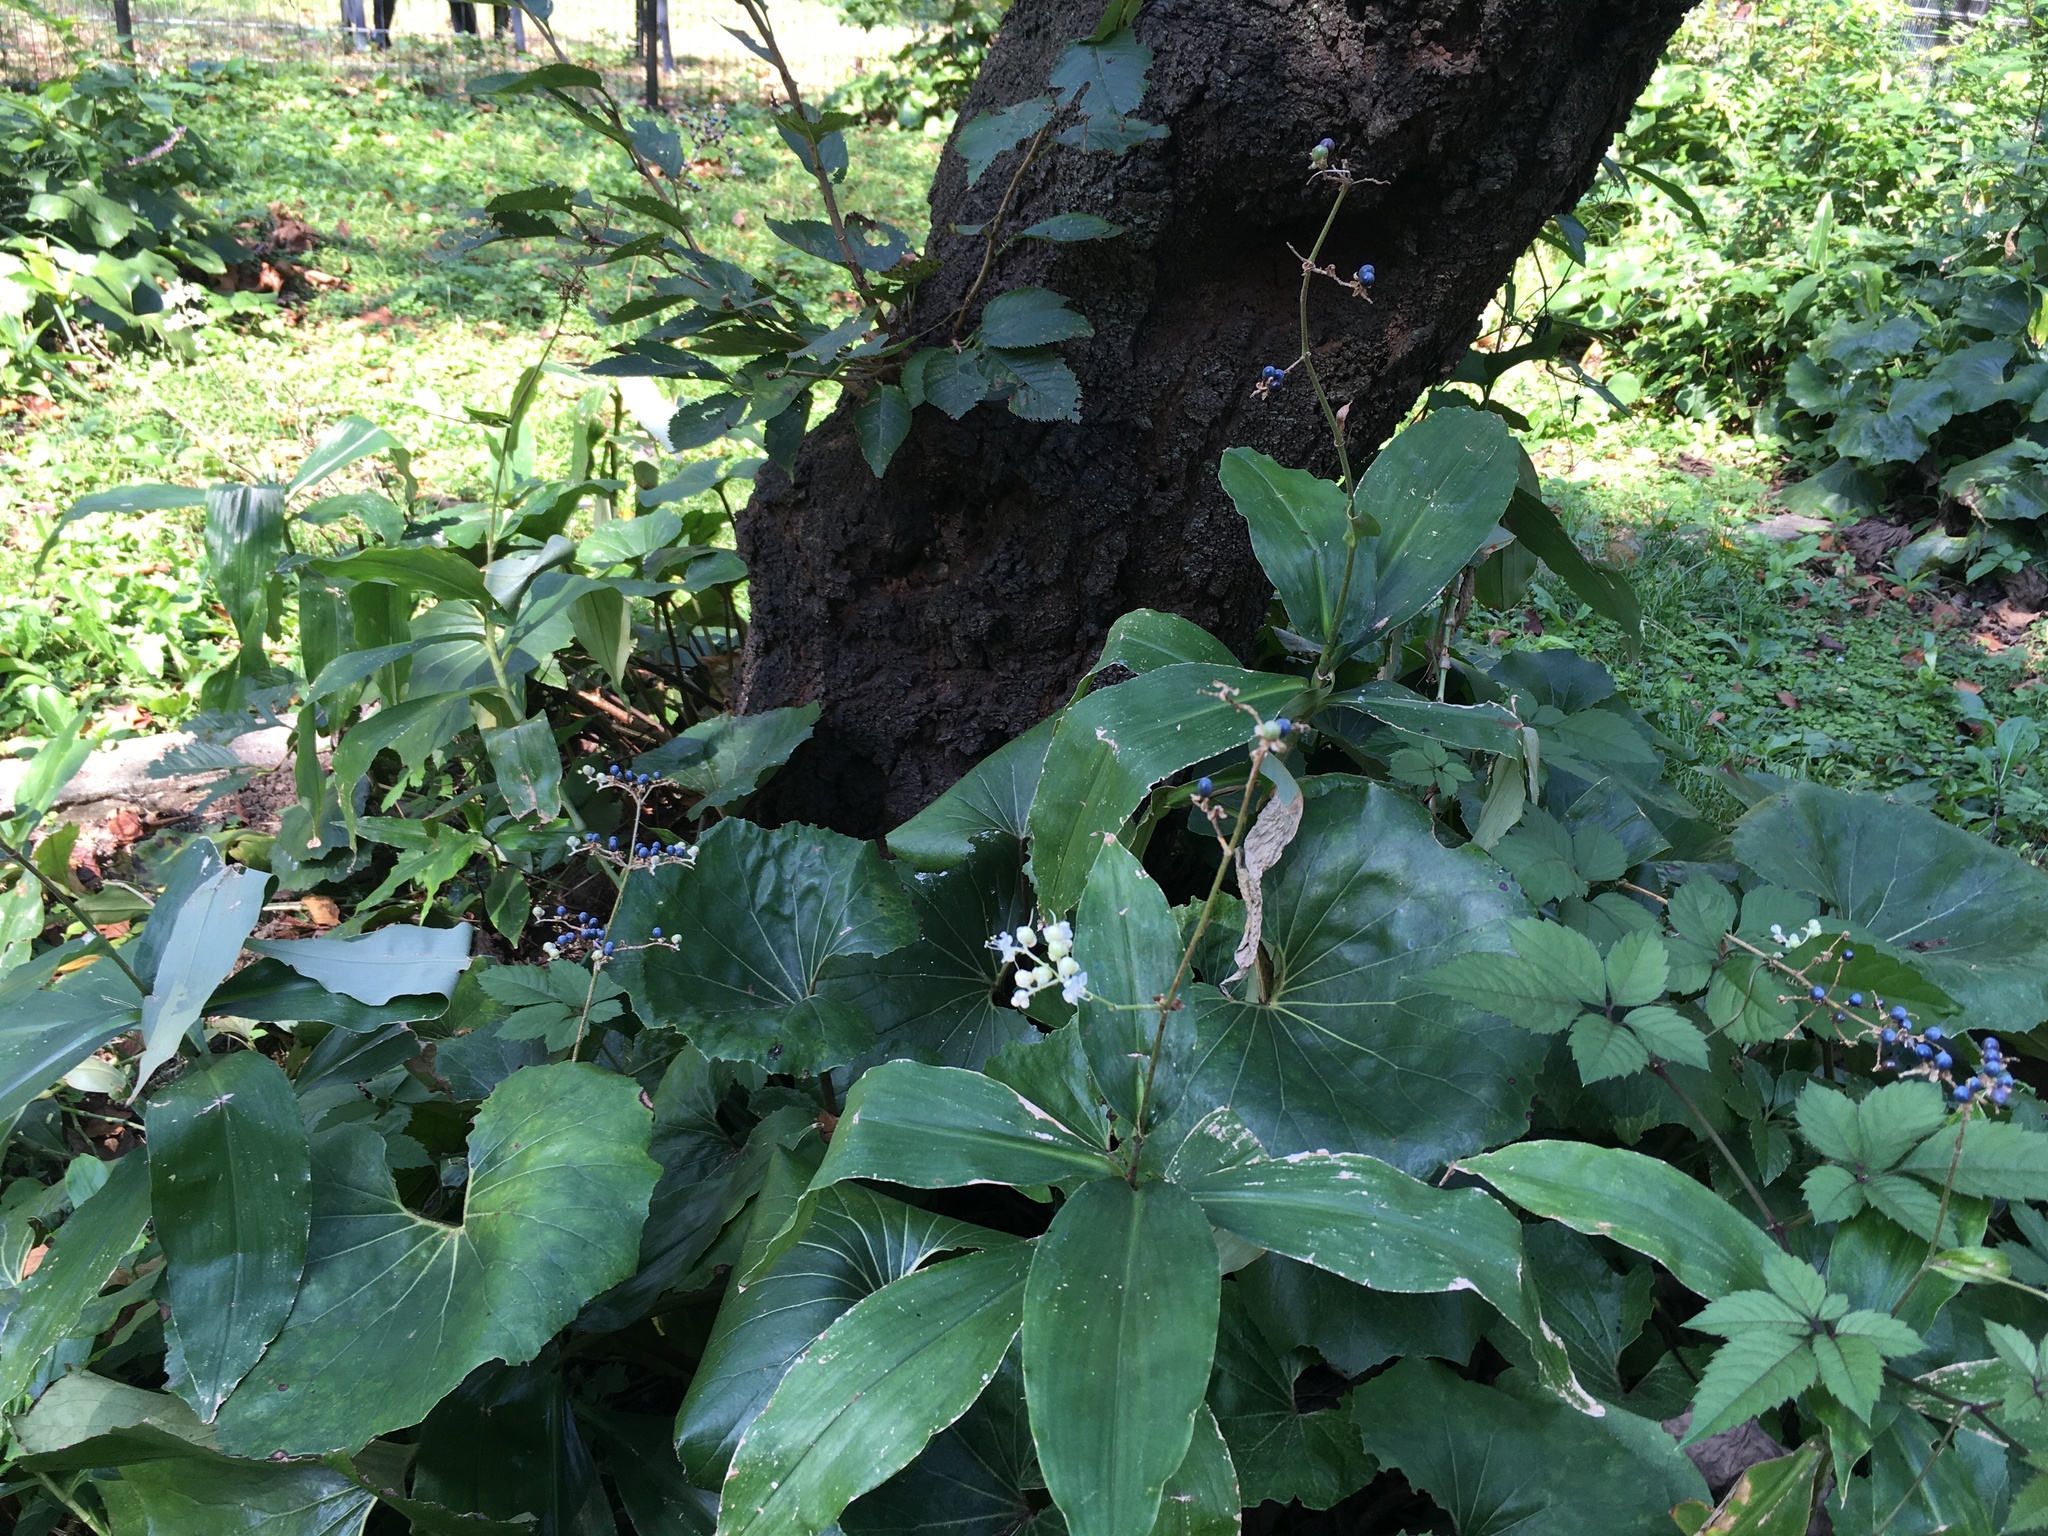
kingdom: Plantae
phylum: Tracheophyta
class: Liliopsida
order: Commelinales
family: Commelinaceae
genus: Pollia
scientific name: Pollia japonica
